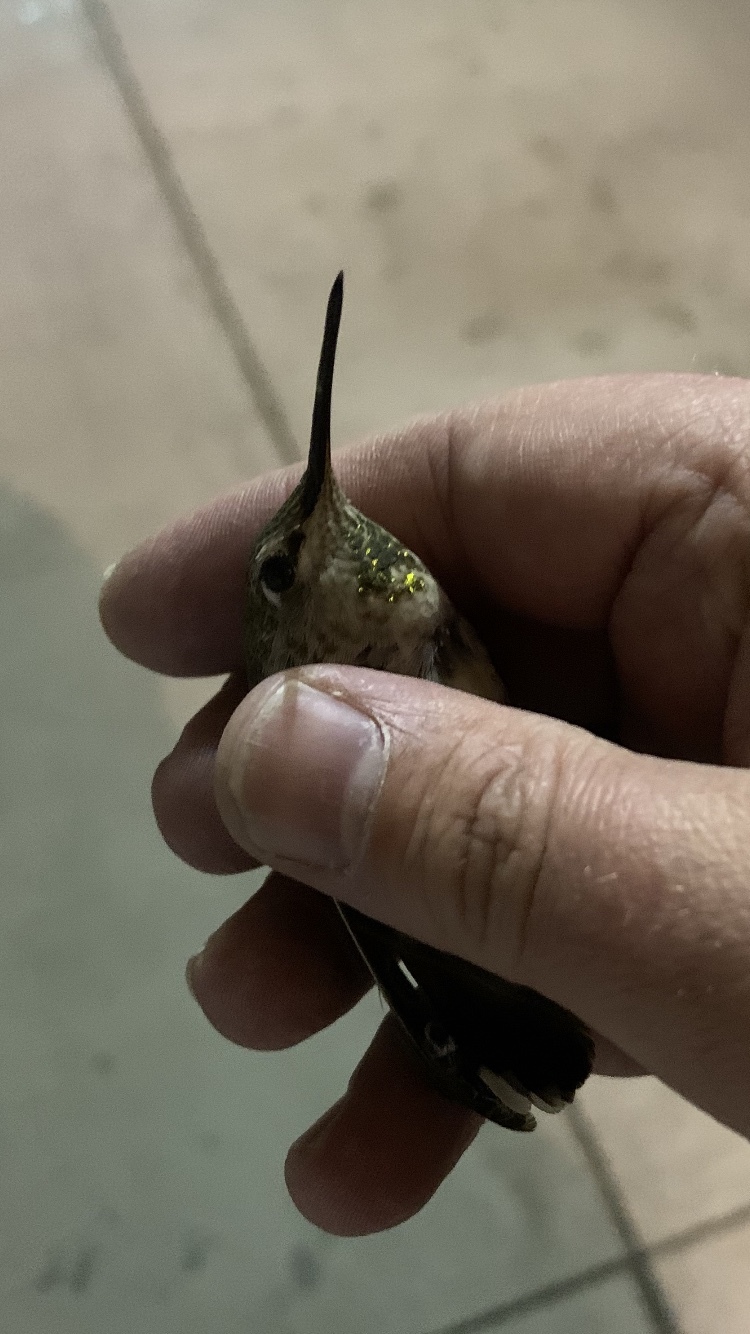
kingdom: Animalia
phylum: Chordata
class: Aves
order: Apodiformes
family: Trochilidae
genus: Calypte
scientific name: Calypte anna
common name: Anna's hummingbird
